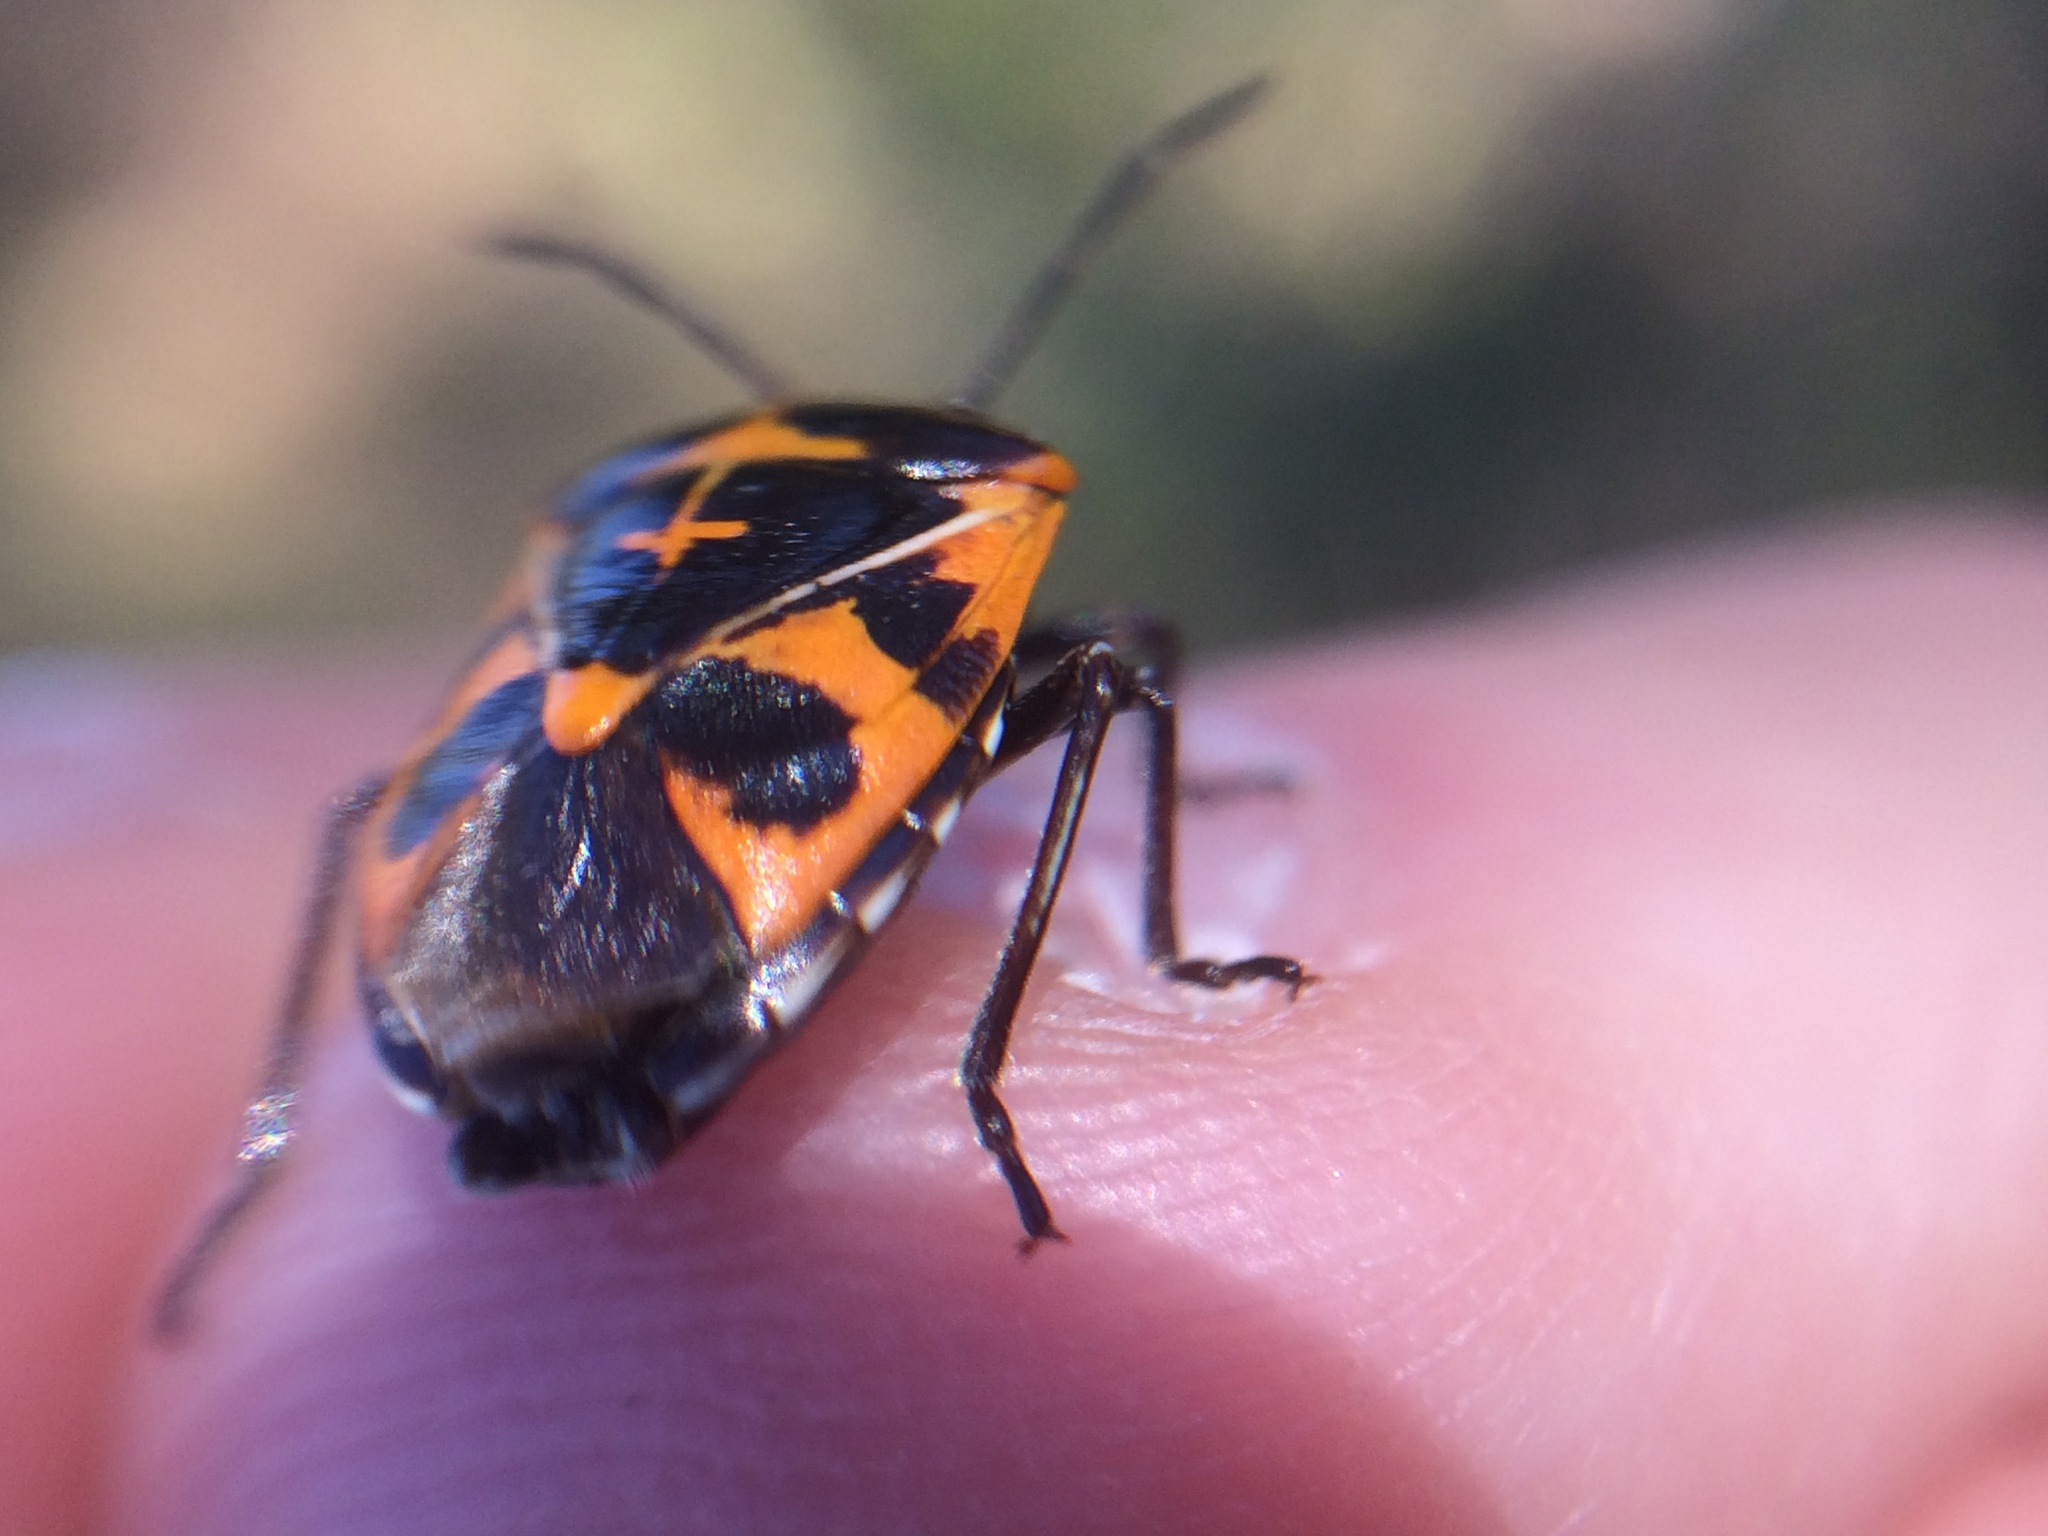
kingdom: Animalia
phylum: Arthropoda
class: Insecta
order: Hemiptera
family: Pentatomidae
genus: Murgantia
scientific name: Murgantia histrionica
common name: Harlequin bug
